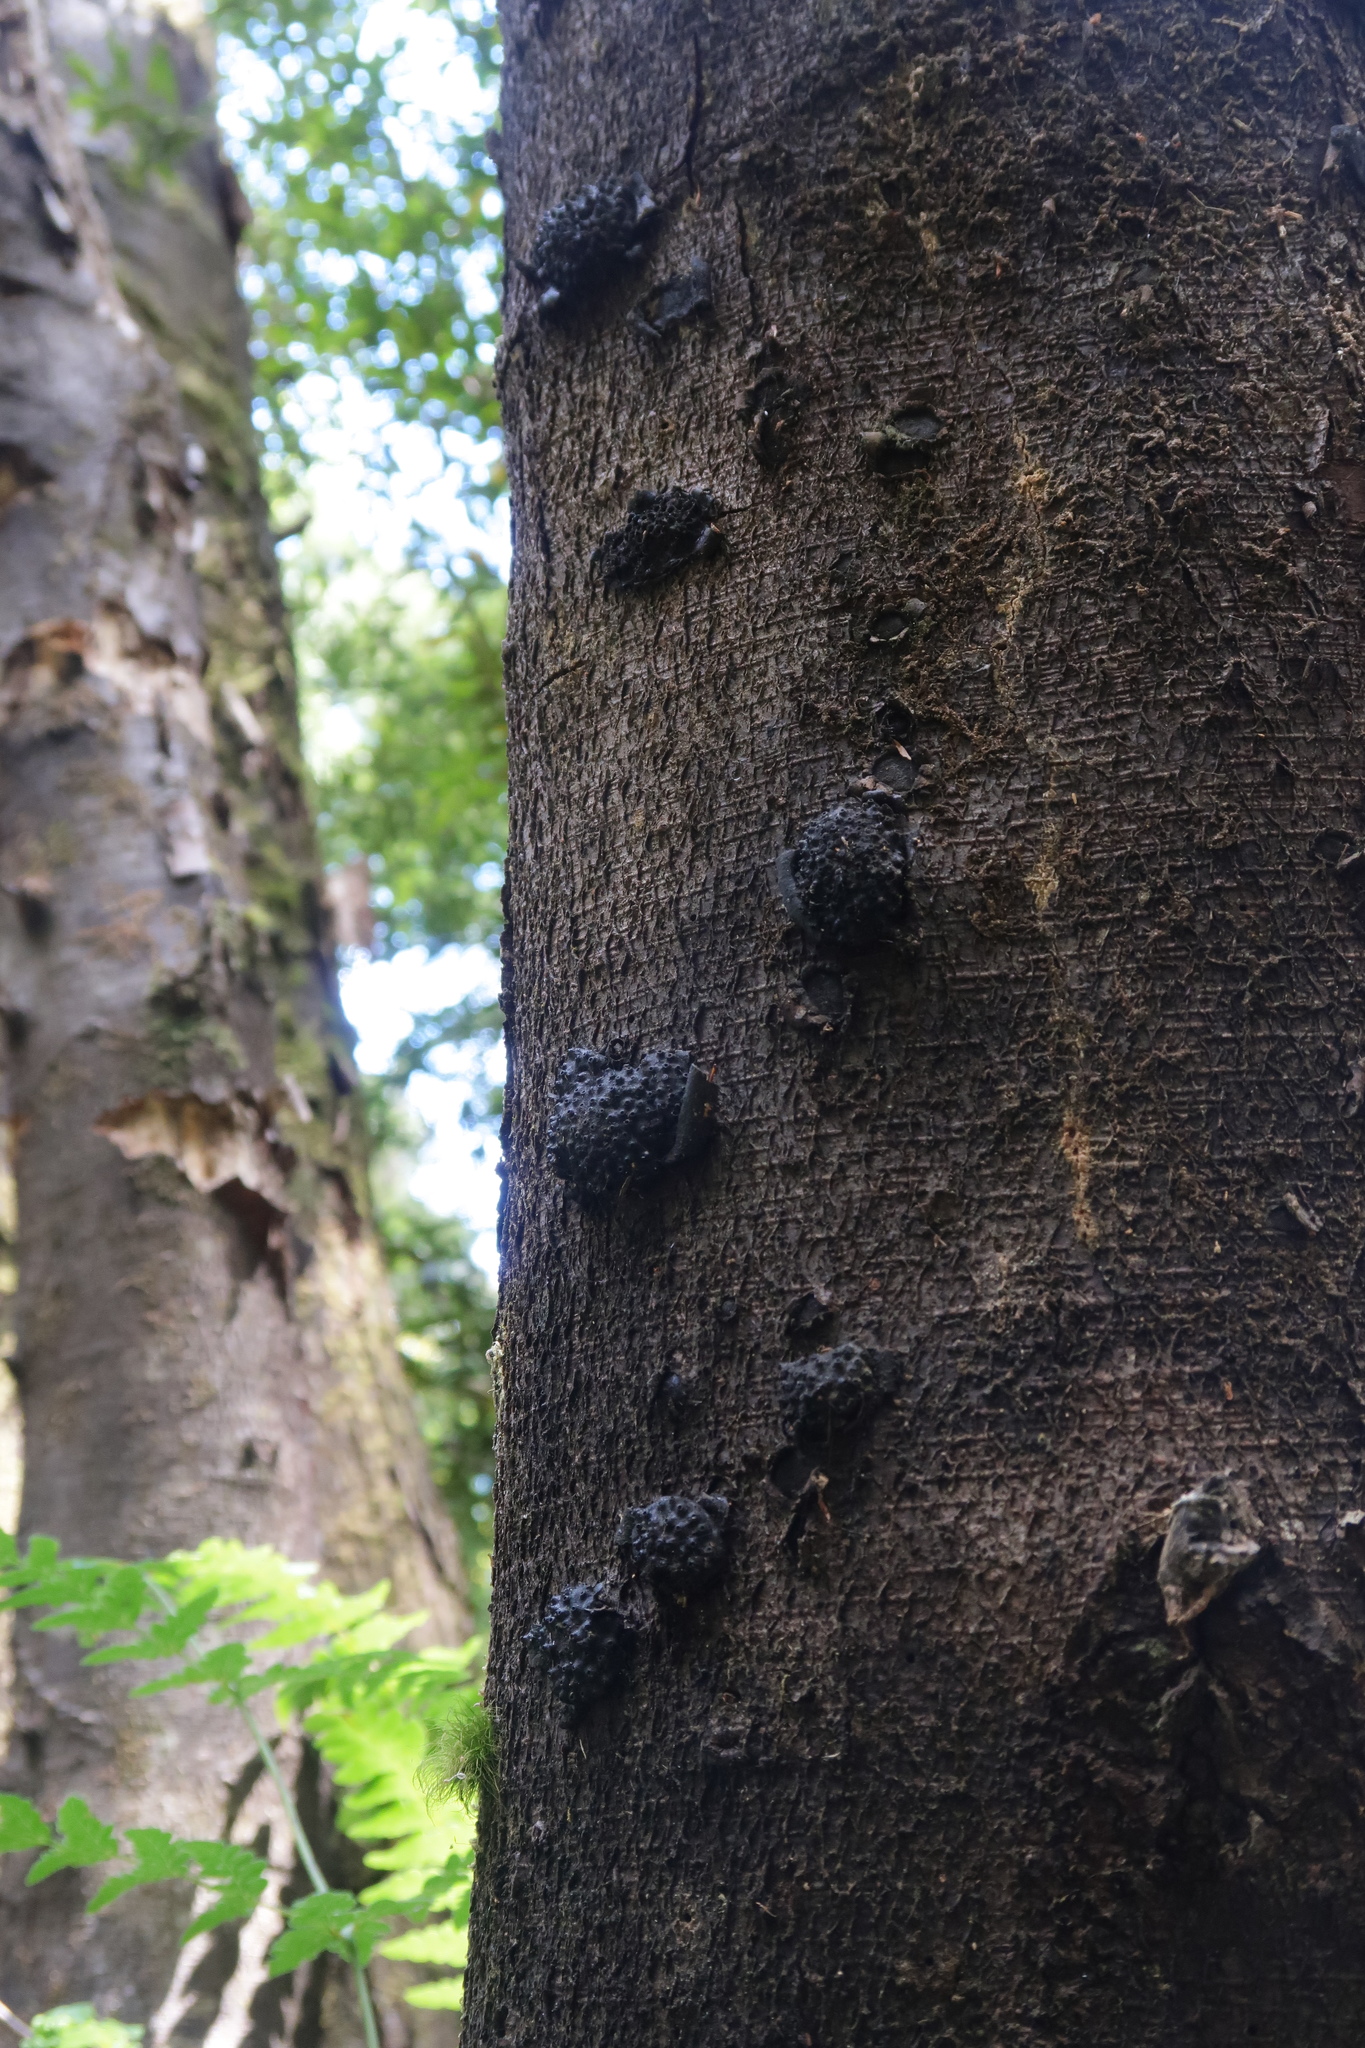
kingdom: Fungi
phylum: Ascomycota
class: Sordariomycetes
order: Xylariales
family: Hypoxylaceae
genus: Annulohypoxylon
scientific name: Annulohypoxylon hians
